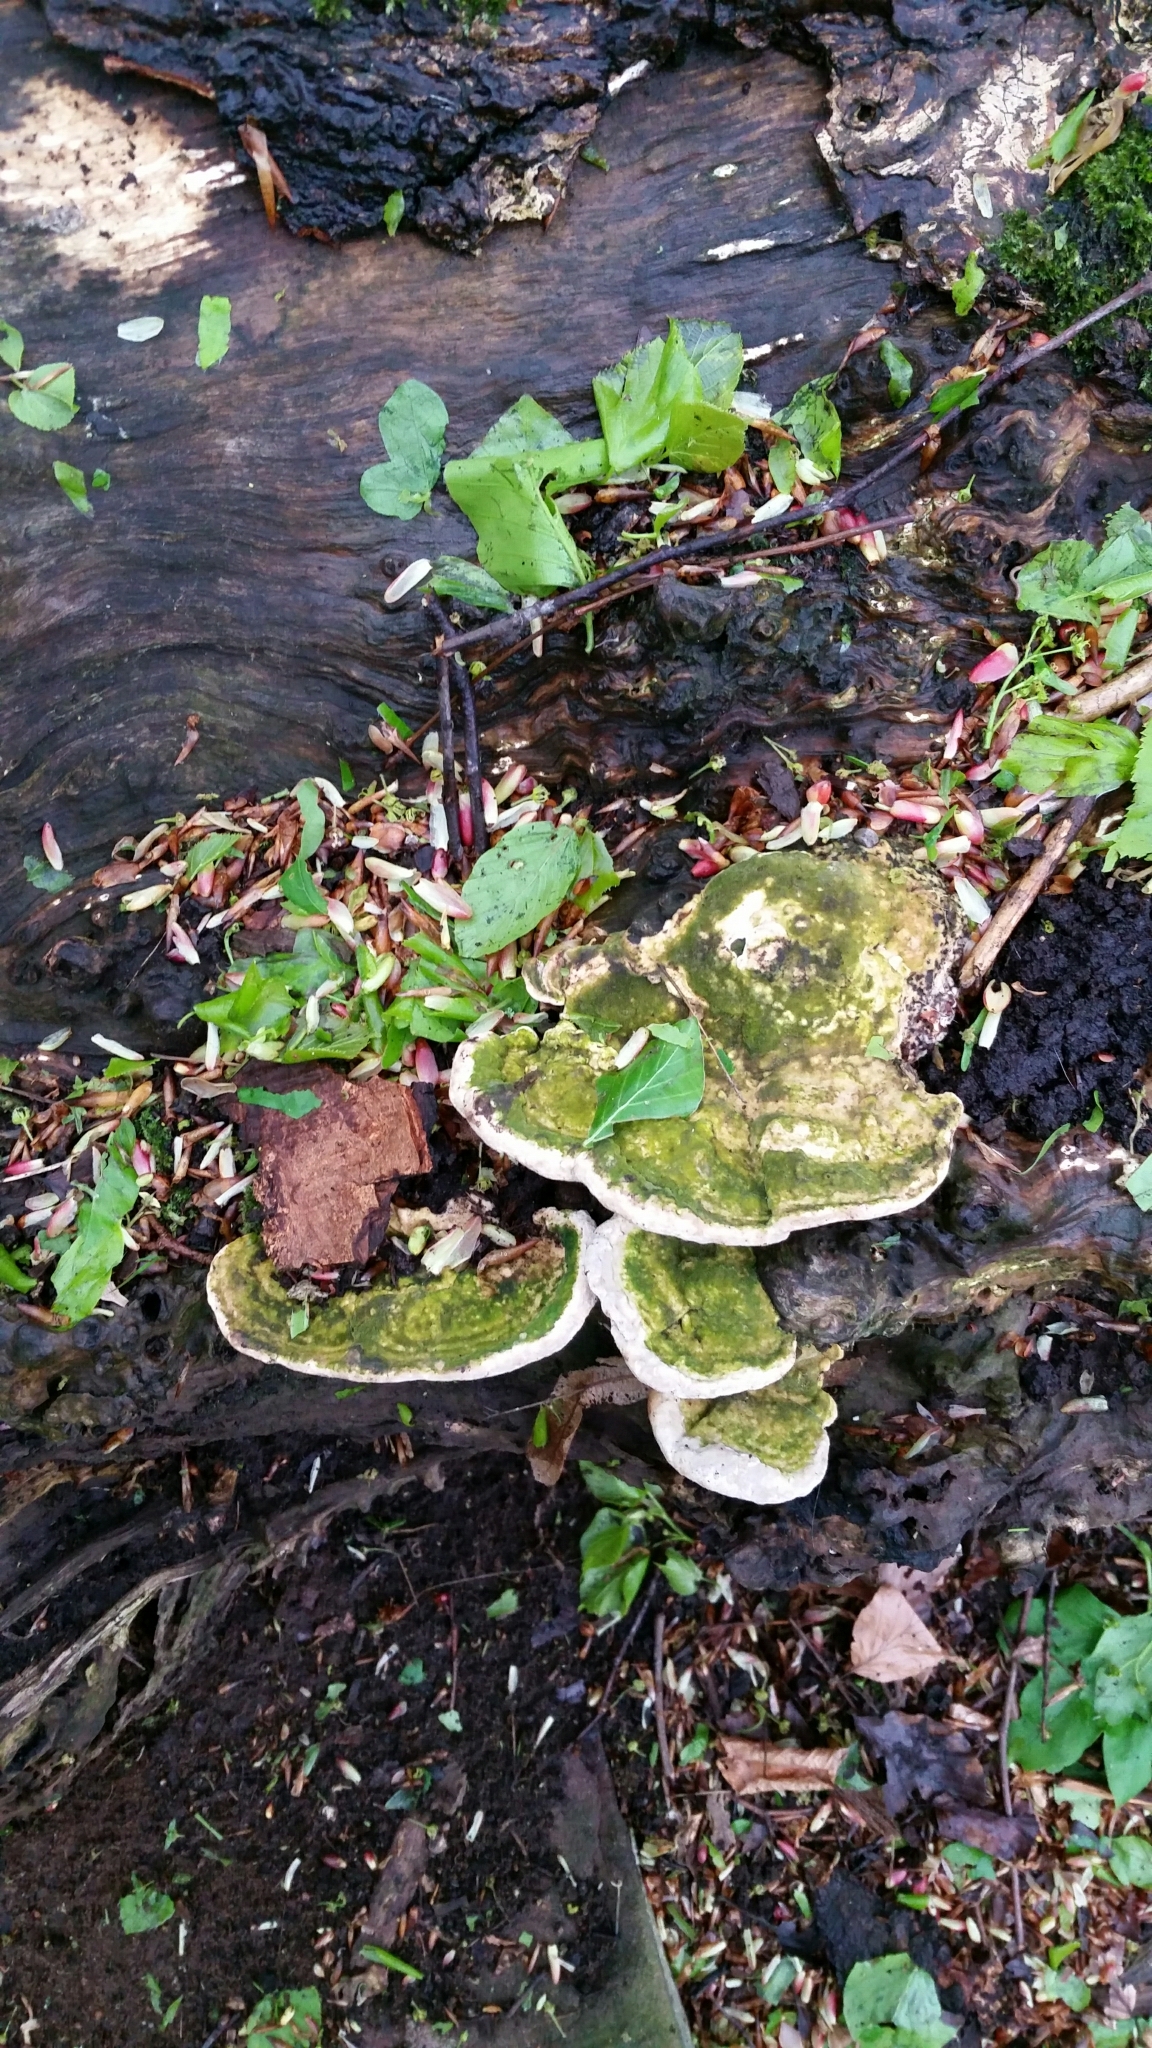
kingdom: Fungi
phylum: Basidiomycota
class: Agaricomycetes
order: Polyporales
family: Polyporaceae
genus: Trametes
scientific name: Trametes gibbosa
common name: Lumpy bracket
